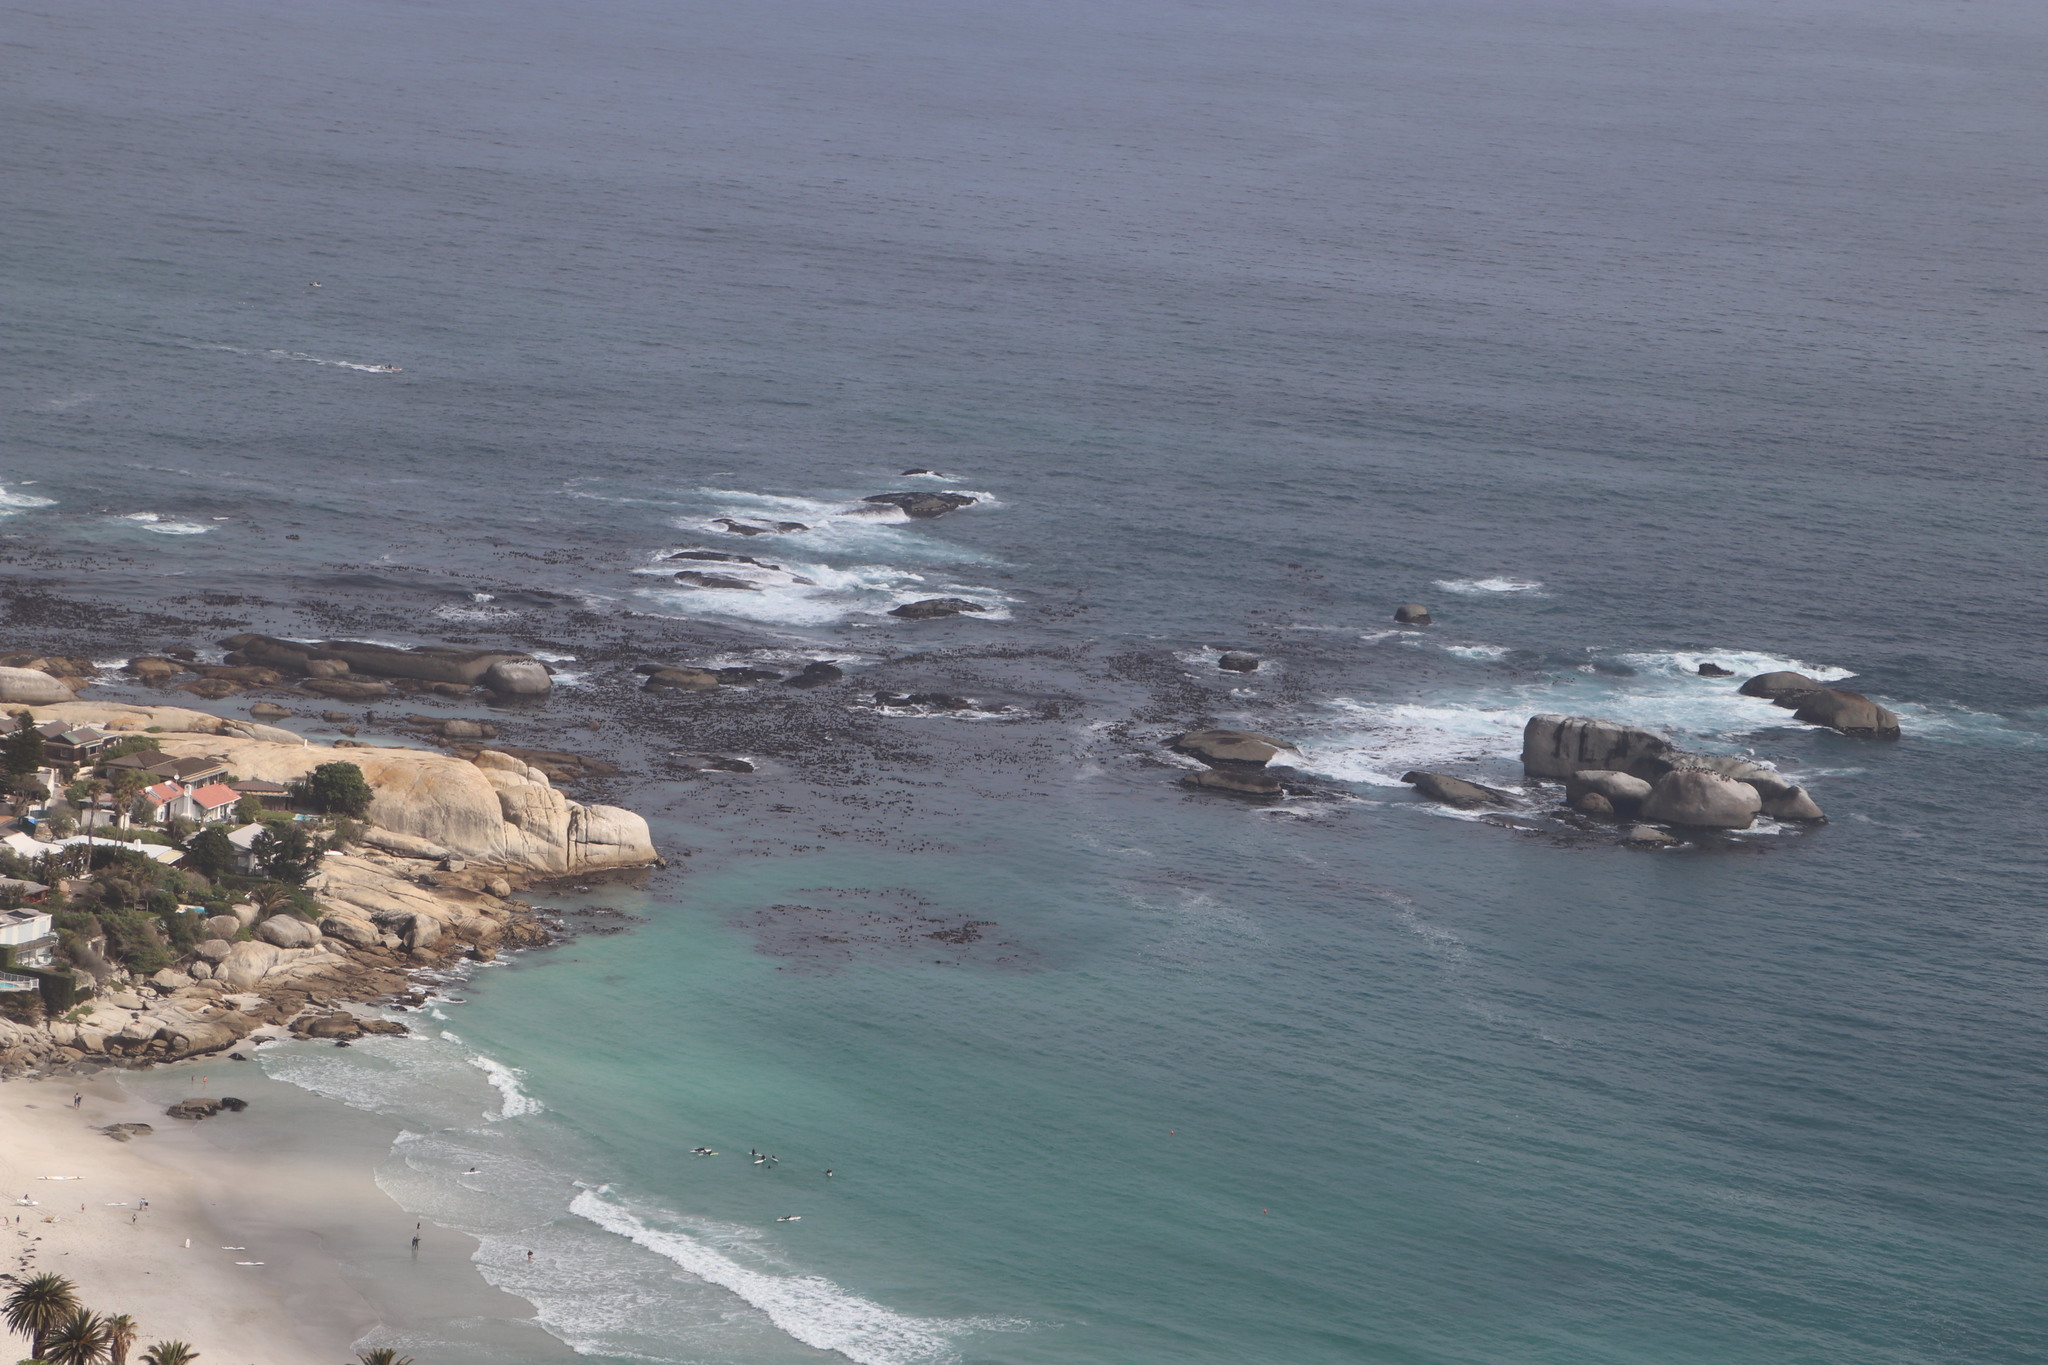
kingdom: Chromista
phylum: Ochrophyta
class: Phaeophyceae
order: Laminariales
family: Lessoniaceae
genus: Ecklonia
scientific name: Ecklonia
